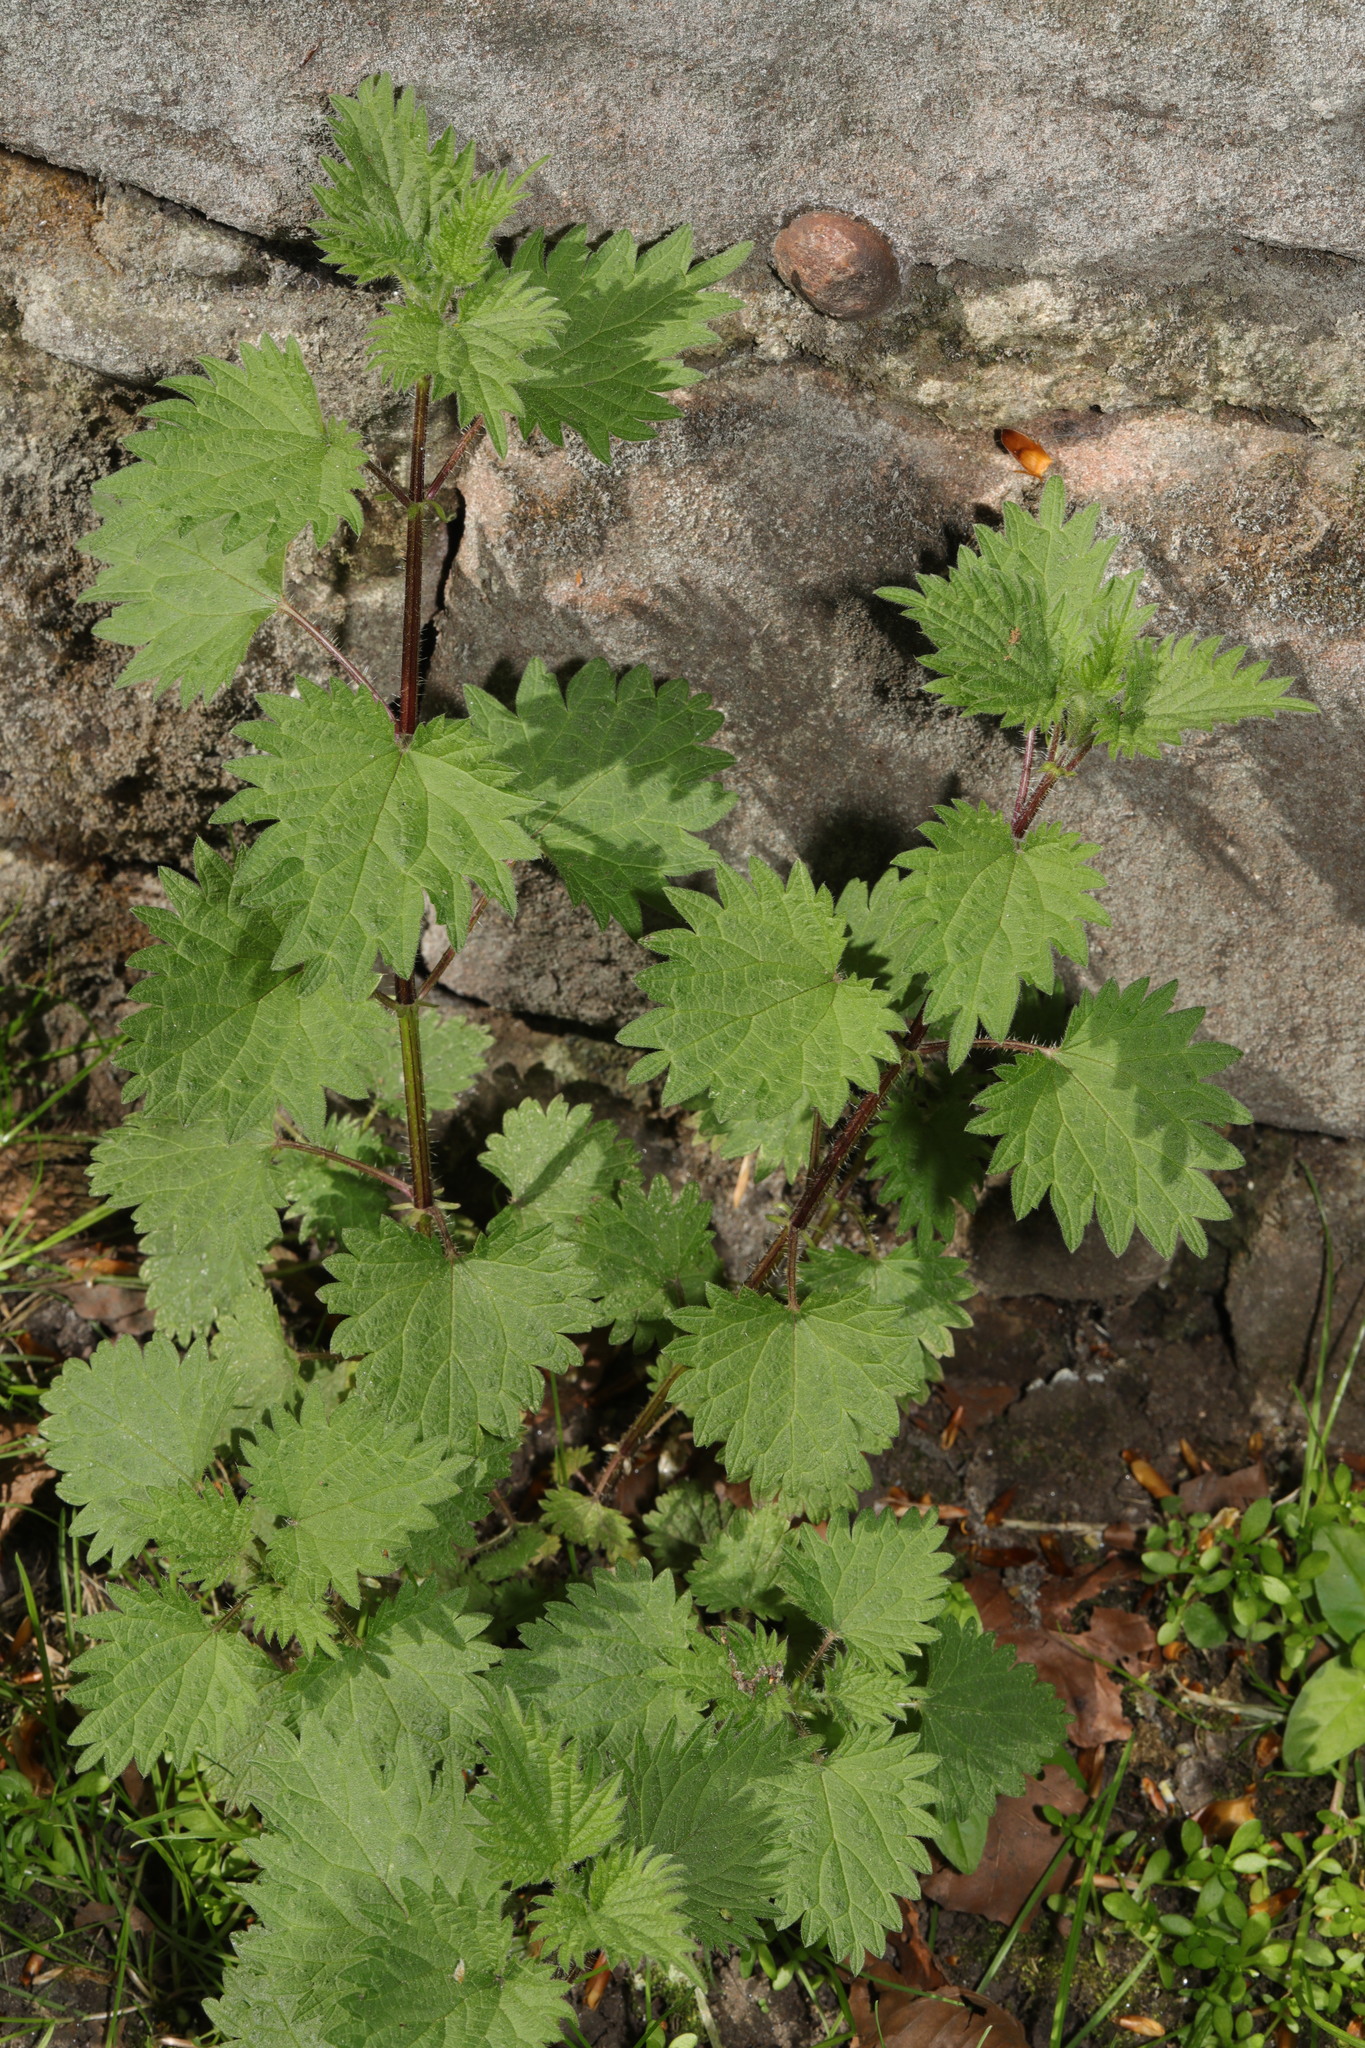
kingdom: Plantae
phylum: Tracheophyta
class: Magnoliopsida
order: Rosales
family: Urticaceae
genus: Urtica
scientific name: Urtica dioica
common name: Common nettle
